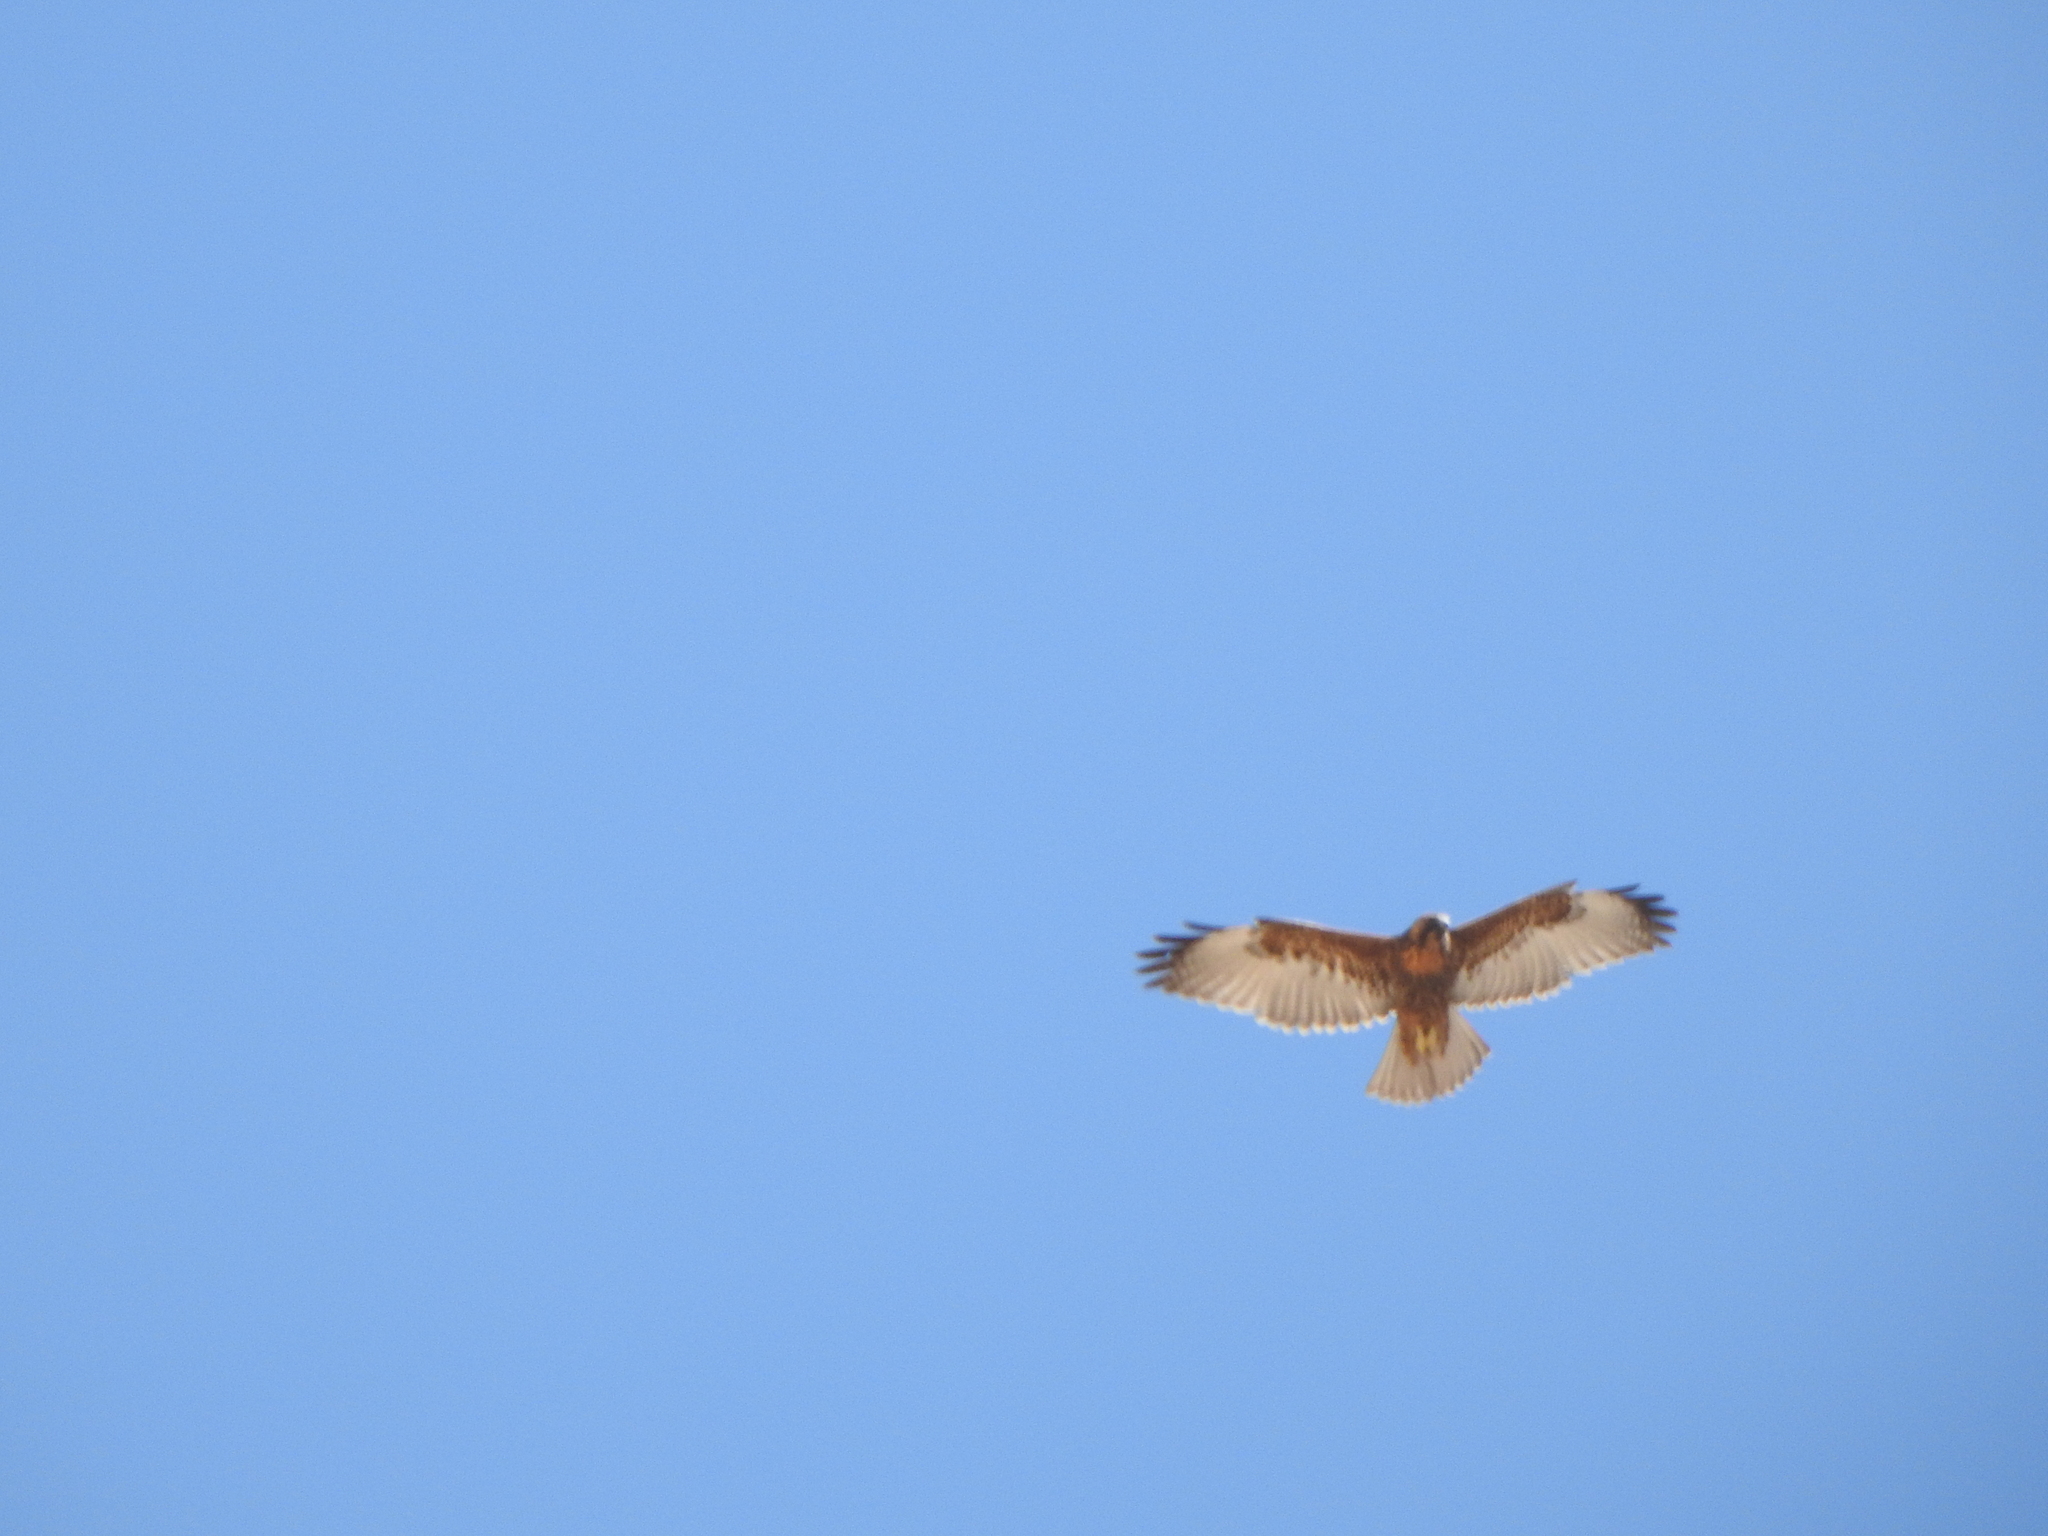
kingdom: Animalia
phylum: Chordata
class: Aves
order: Accipitriformes
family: Accipitridae
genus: Buteo
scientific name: Buteo polyosoma
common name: Variable hawk
